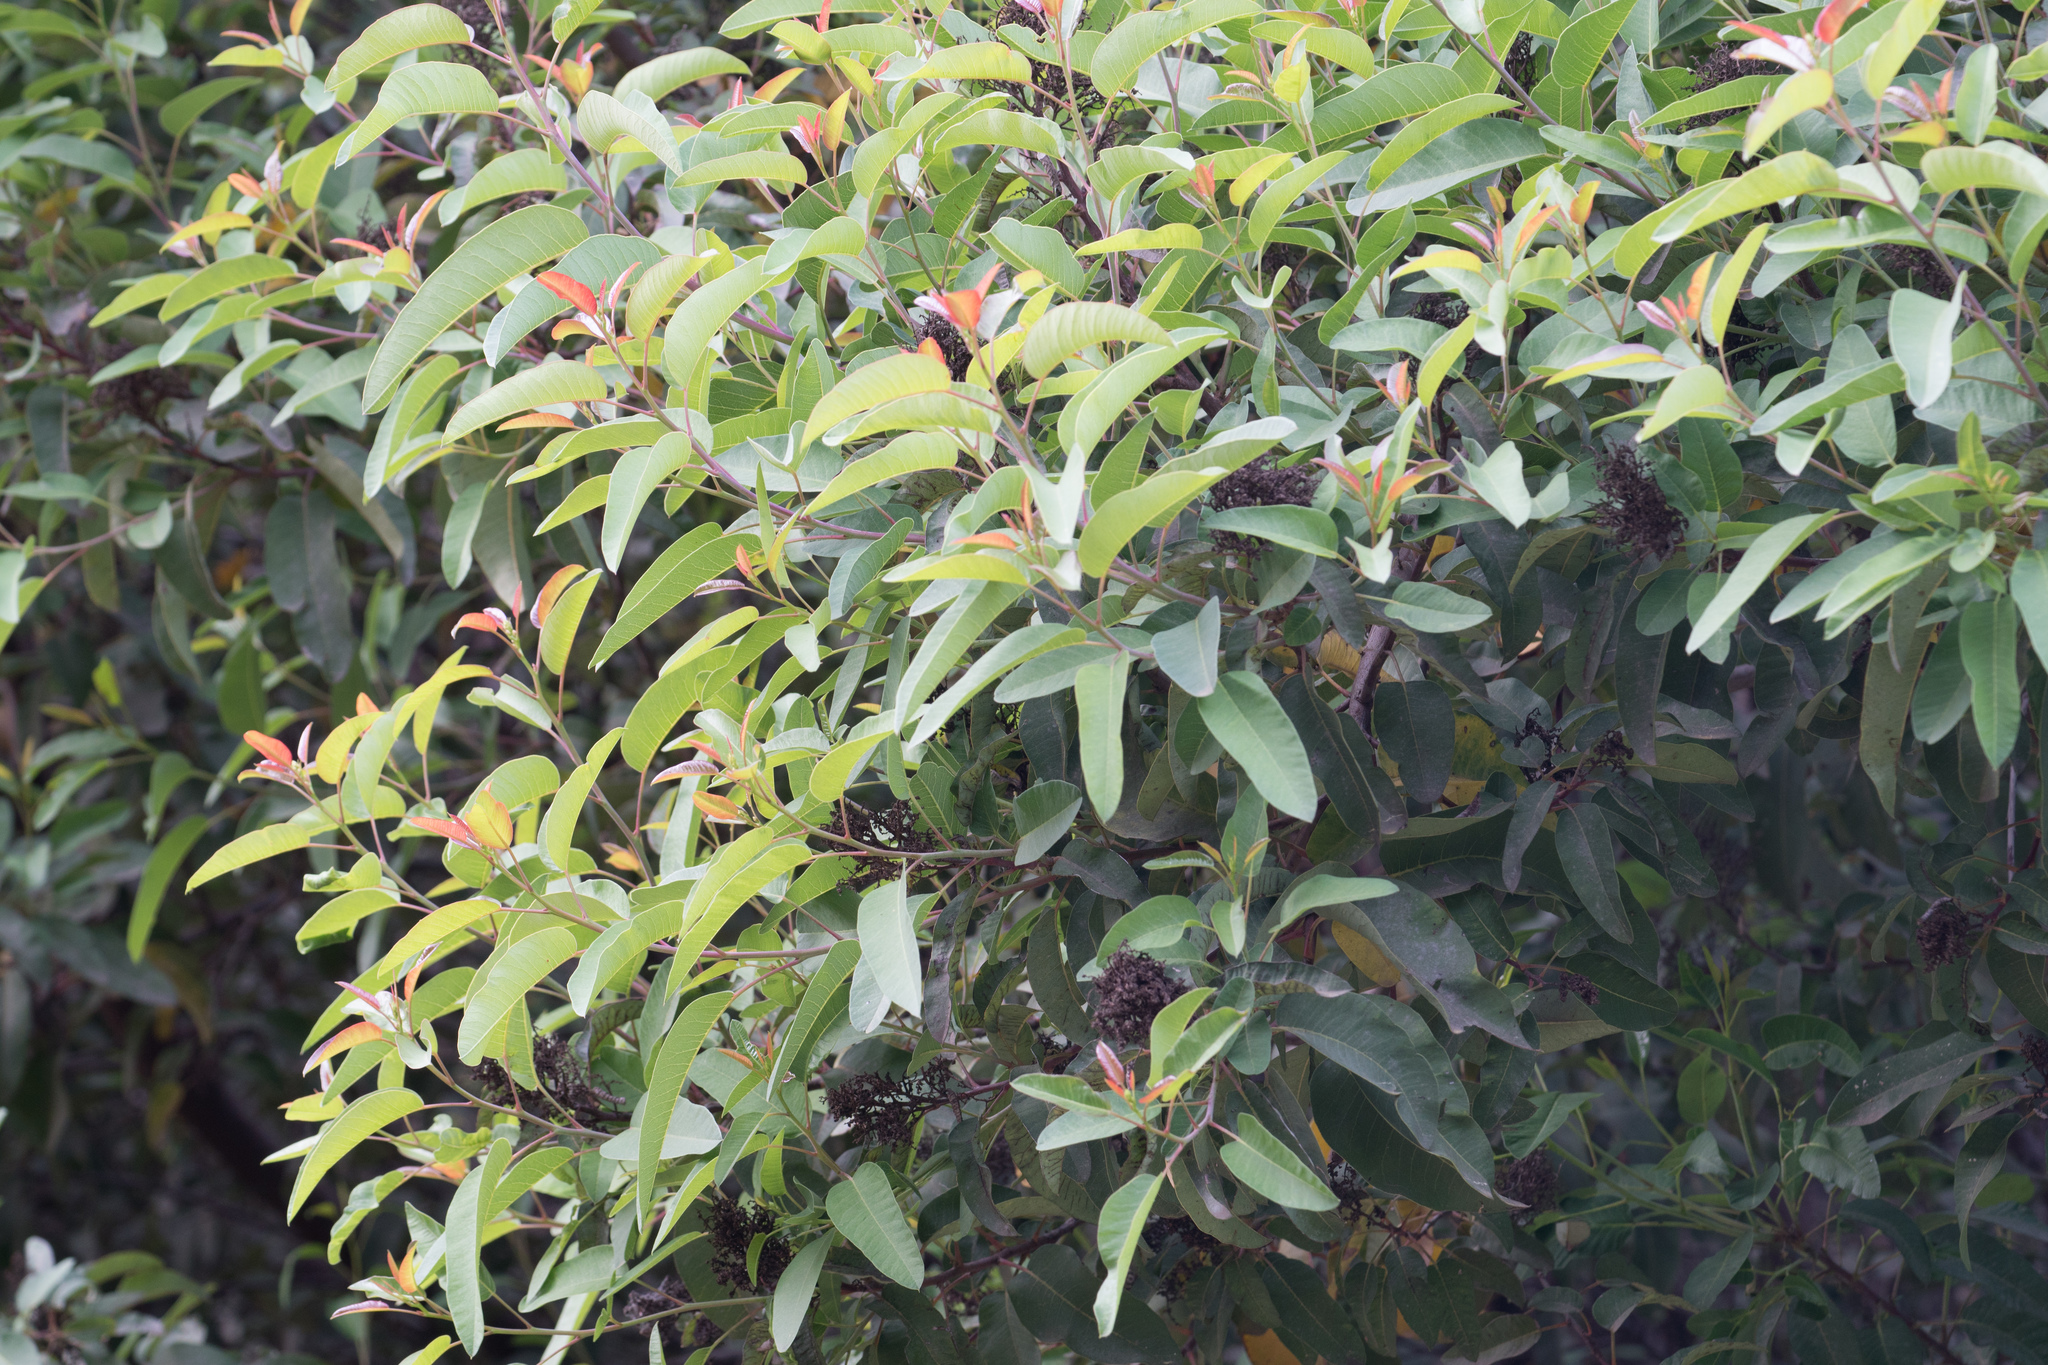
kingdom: Plantae
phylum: Tracheophyta
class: Magnoliopsida
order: Sapindales
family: Anacardiaceae
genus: Malosma
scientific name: Malosma laurina
